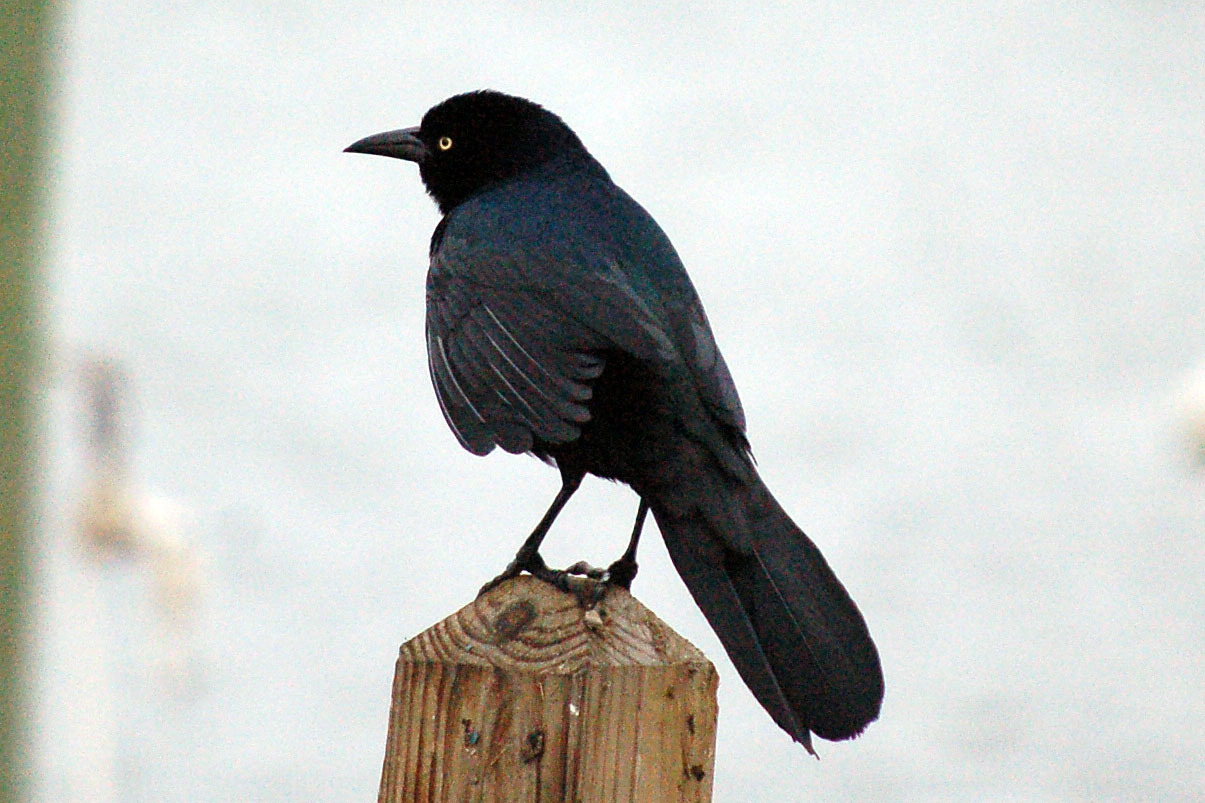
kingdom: Animalia
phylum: Chordata
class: Aves
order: Passeriformes
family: Icteridae
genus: Quiscalus
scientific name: Quiscalus major
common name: Boat-tailed grackle
